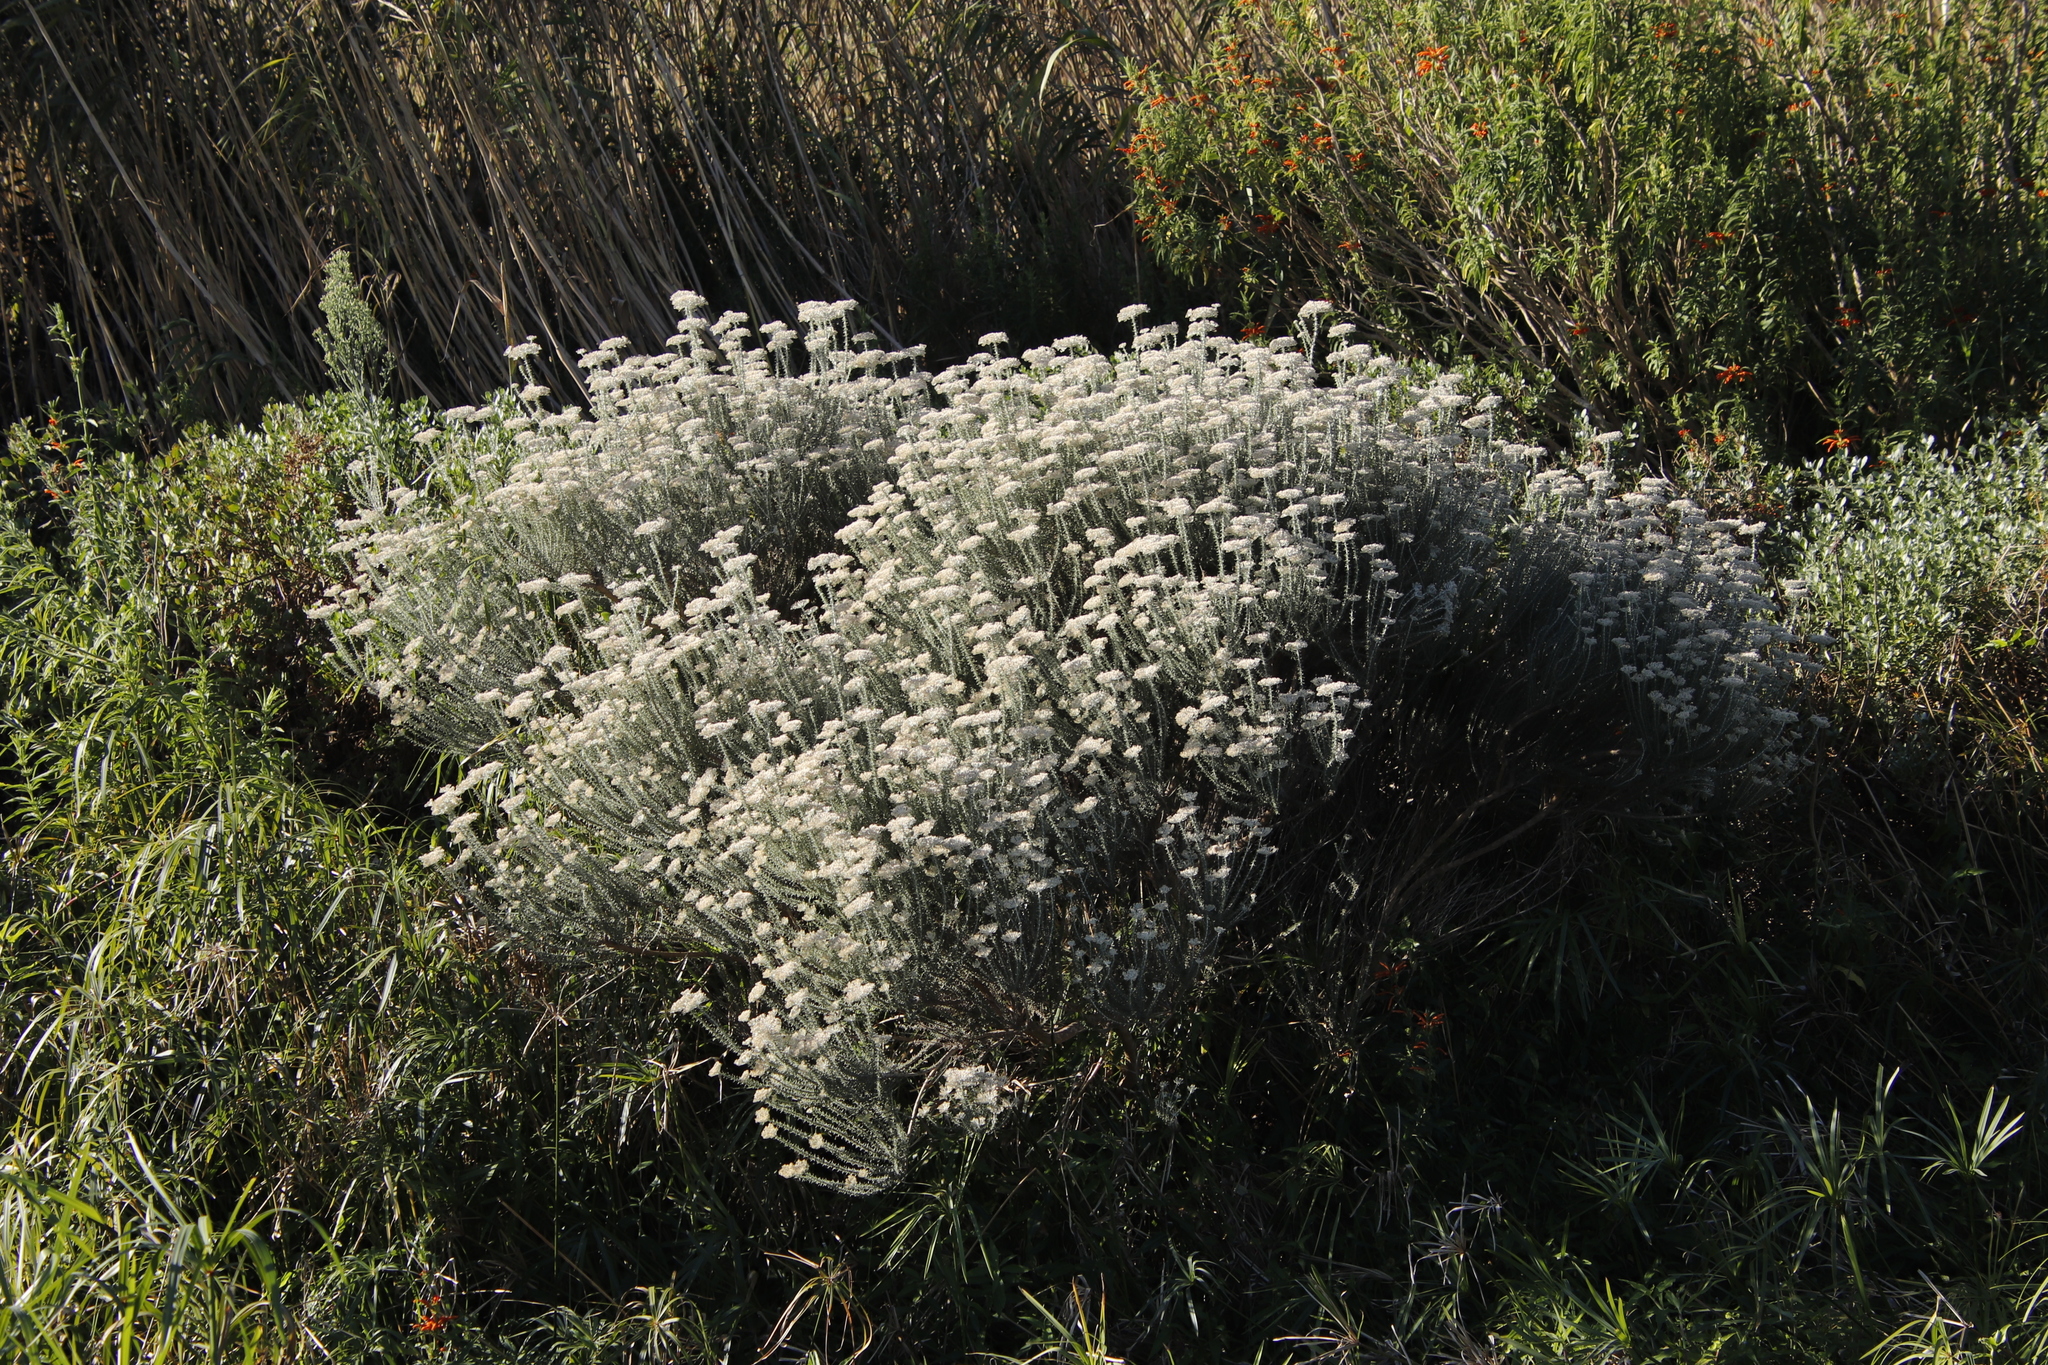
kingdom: Plantae
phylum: Tracheophyta
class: Magnoliopsida
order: Asterales
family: Asteraceae
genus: Metalasia
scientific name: Metalasia densa
